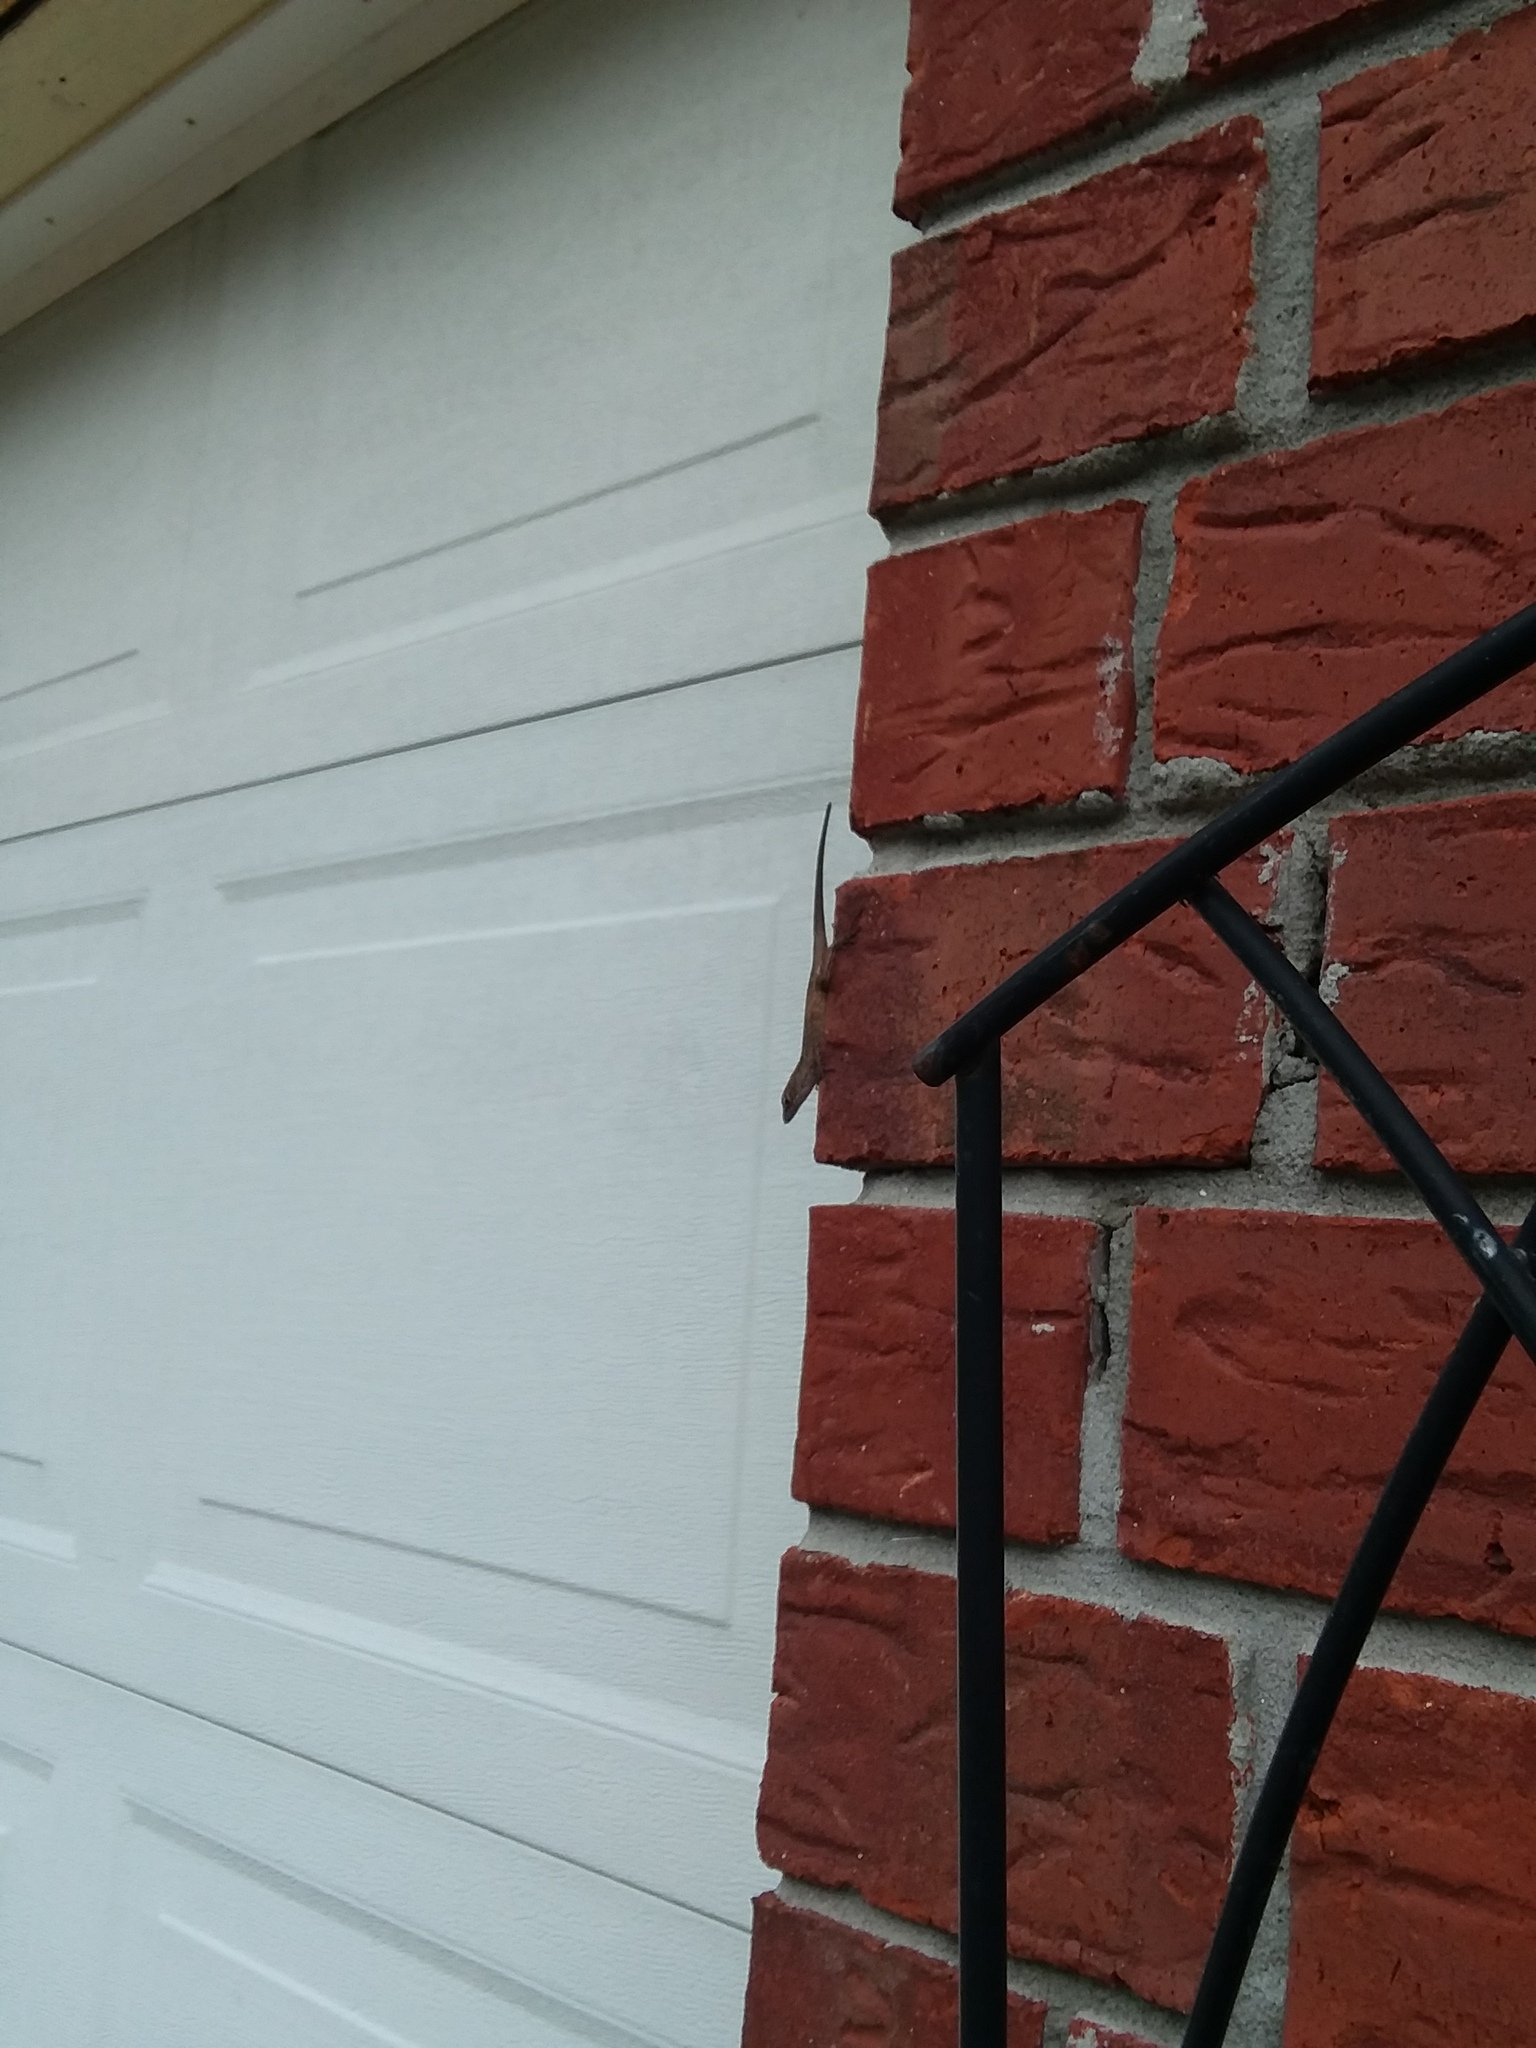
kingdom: Animalia
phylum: Chordata
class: Squamata
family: Dactyloidae
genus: Anolis
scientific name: Anolis sagrei
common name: Brown anole
